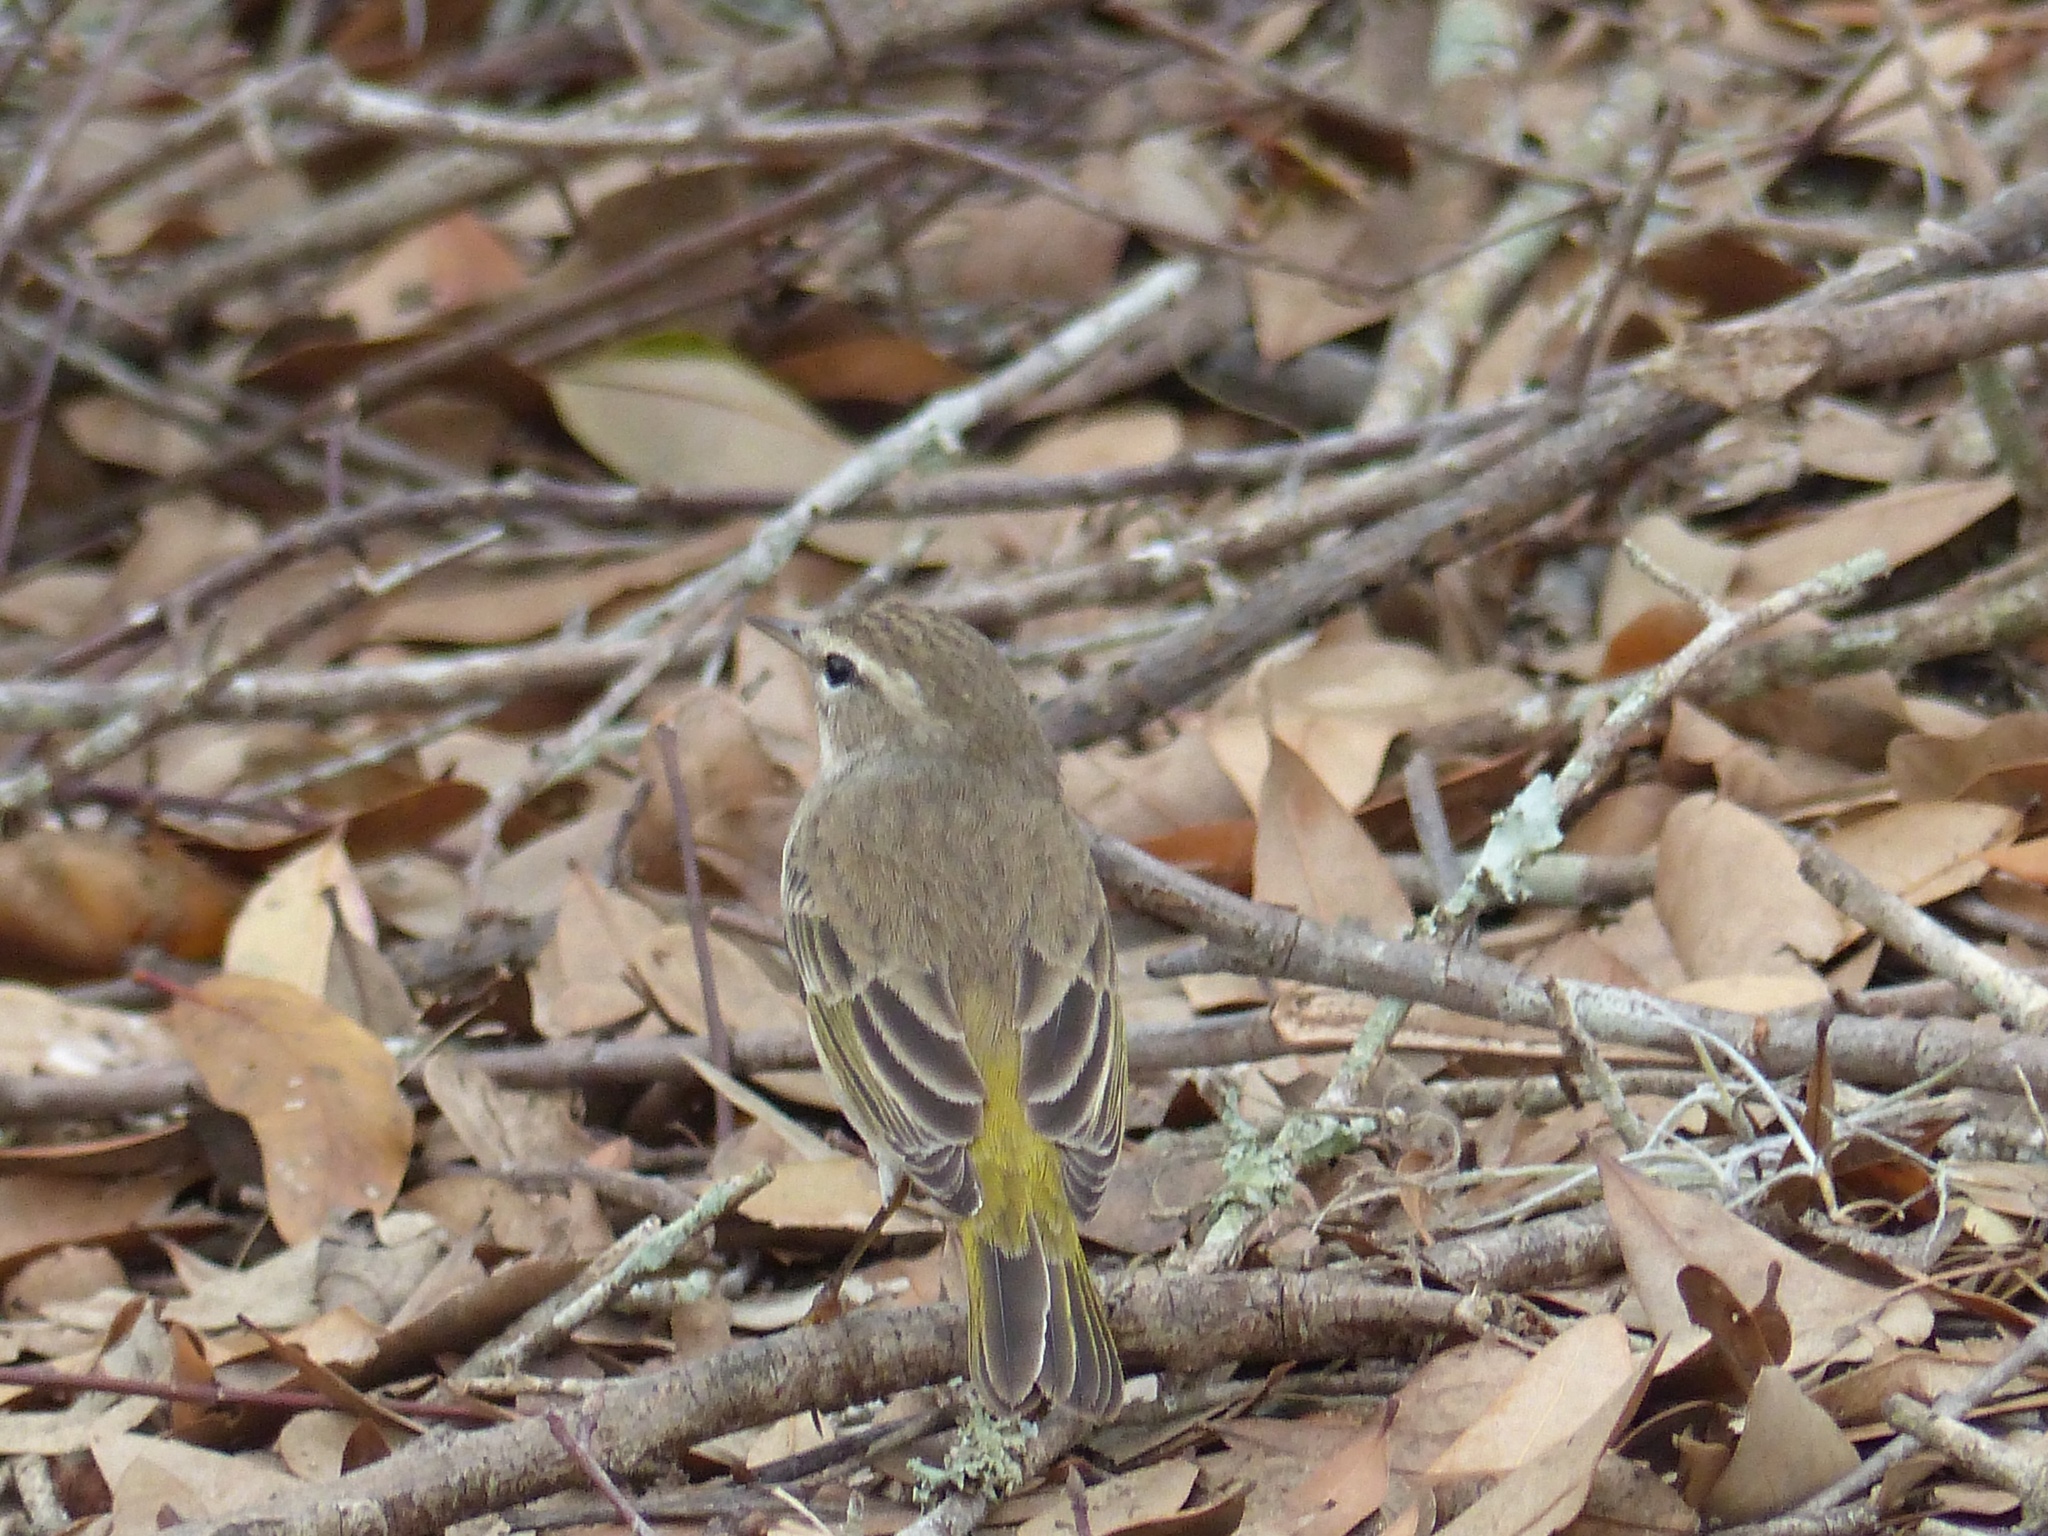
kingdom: Animalia
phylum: Chordata
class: Aves
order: Passeriformes
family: Parulidae
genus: Setophaga
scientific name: Setophaga palmarum
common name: Palm warbler
